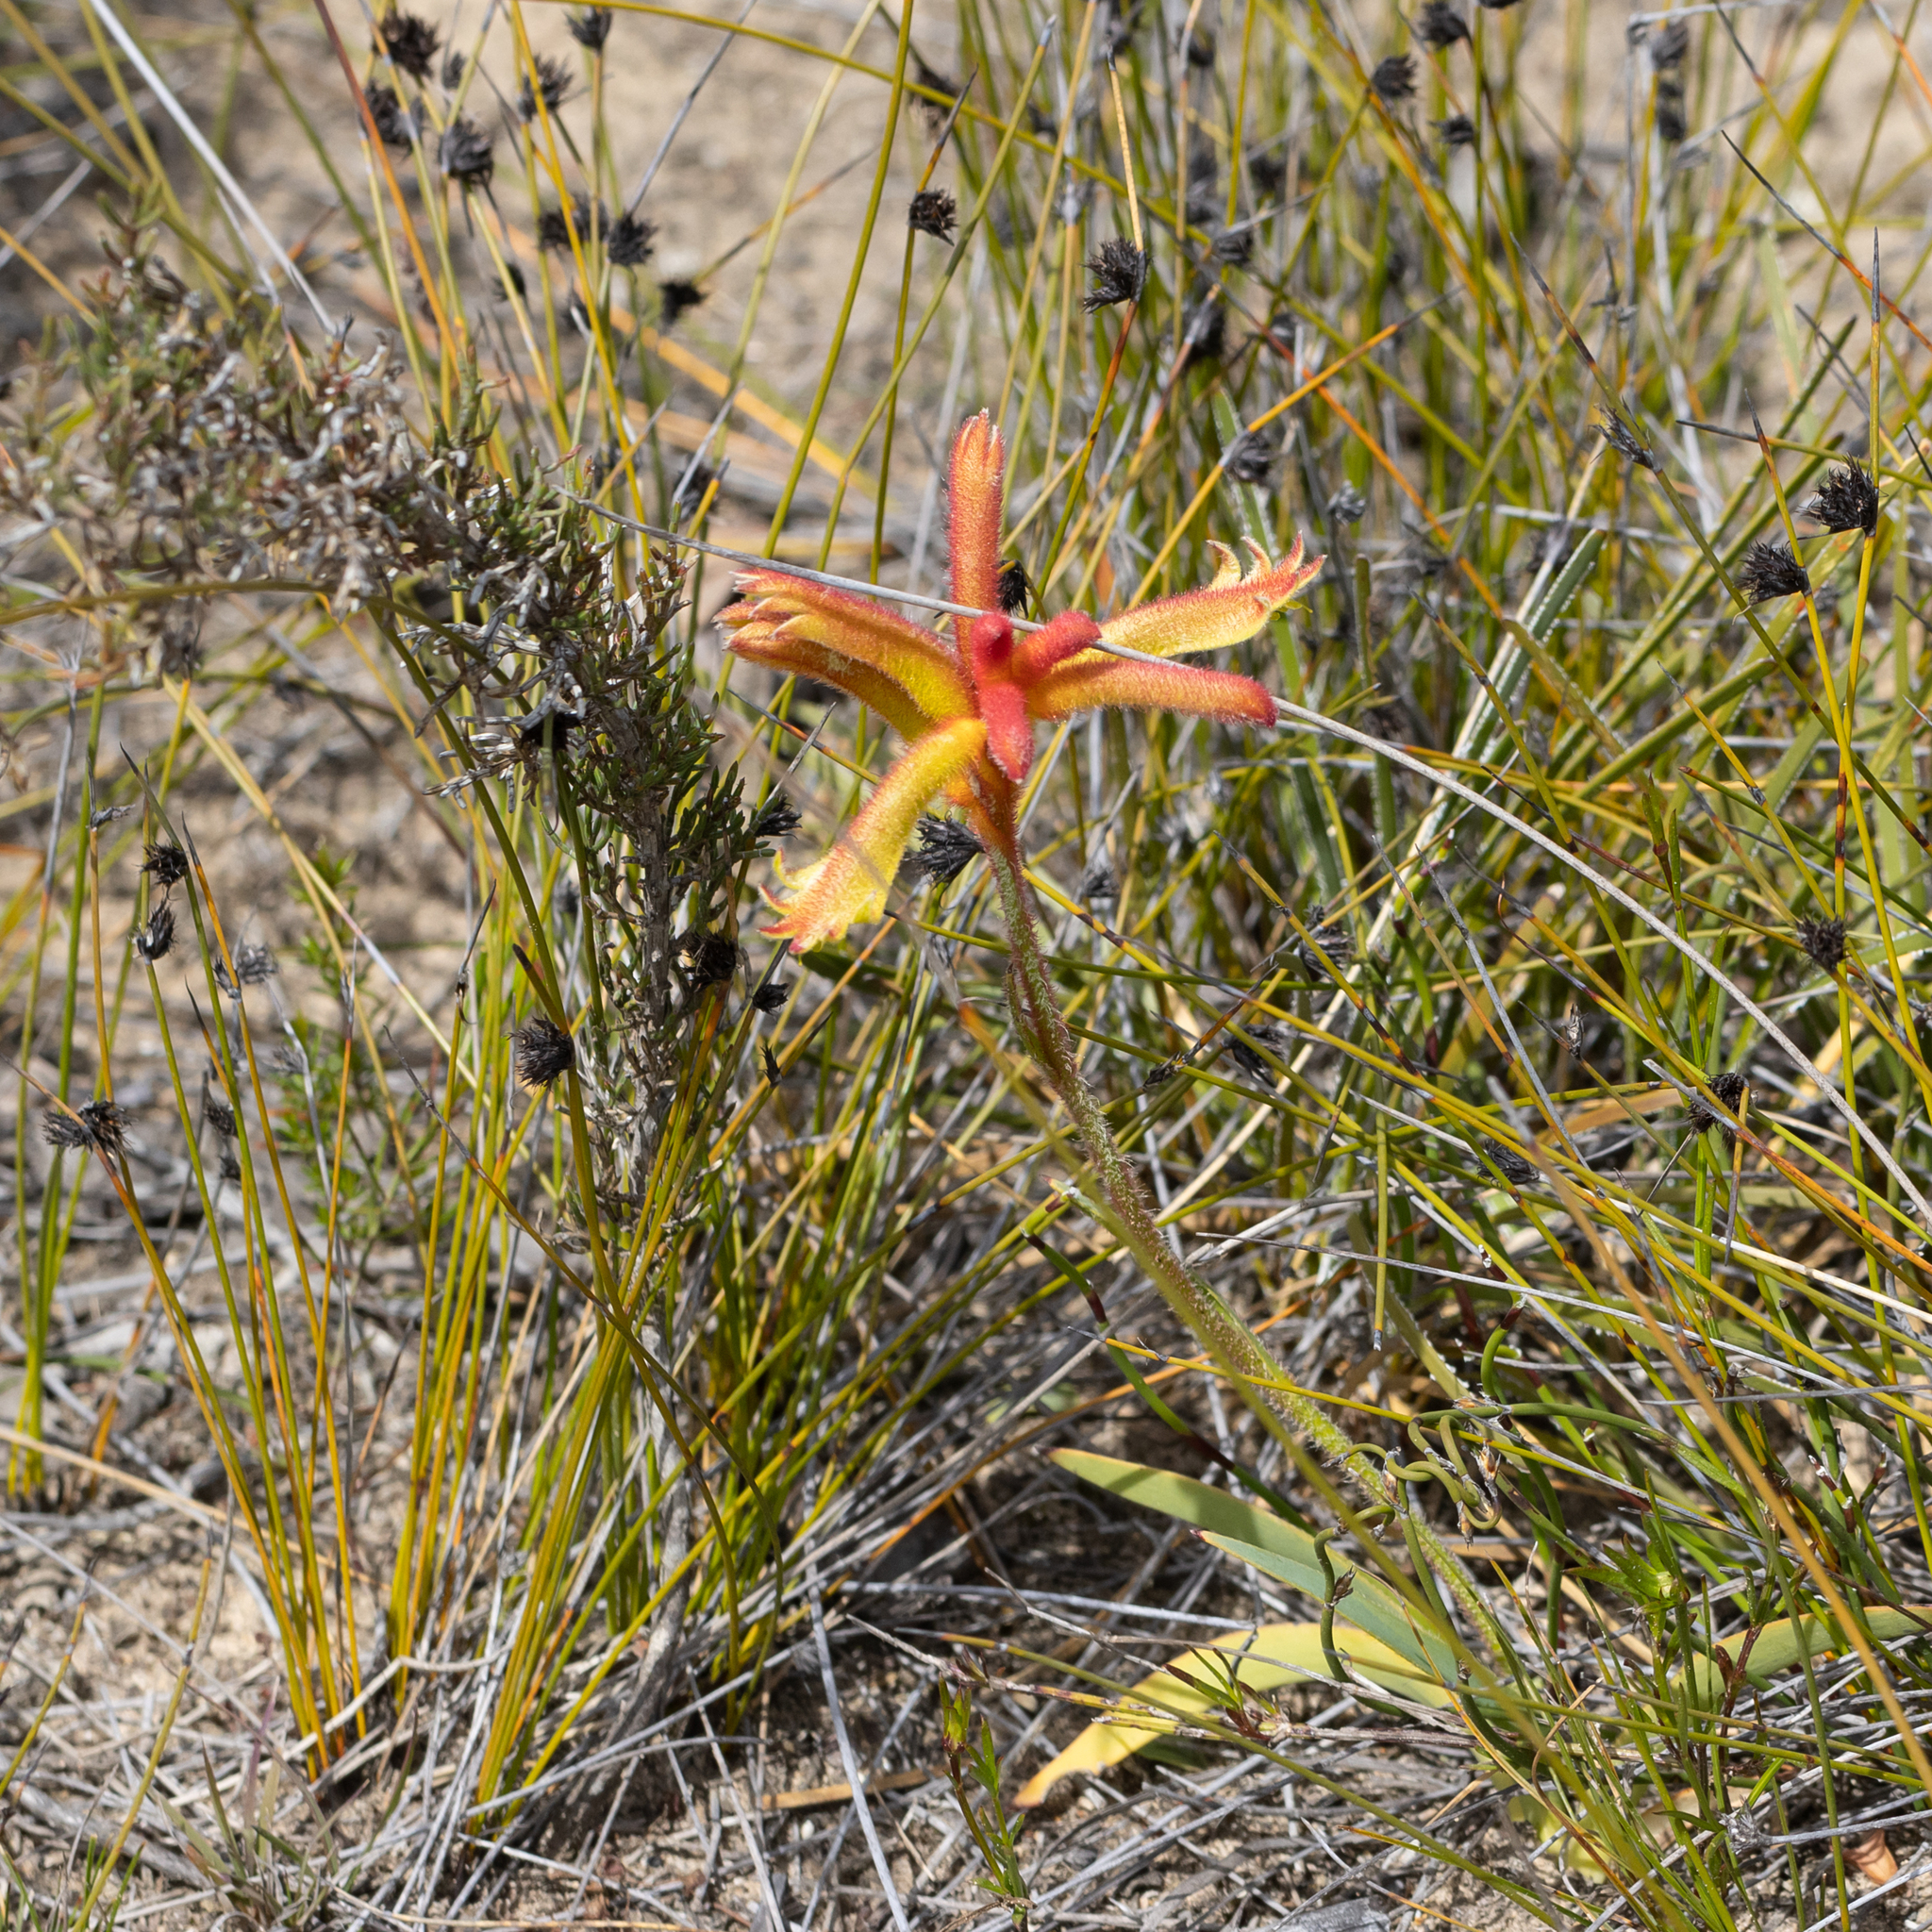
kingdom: Plantae
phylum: Tracheophyta
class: Liliopsida
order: Commelinales
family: Haemodoraceae
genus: Anigozanthos
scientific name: Anigozanthos humilis
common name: Cat's-paw
